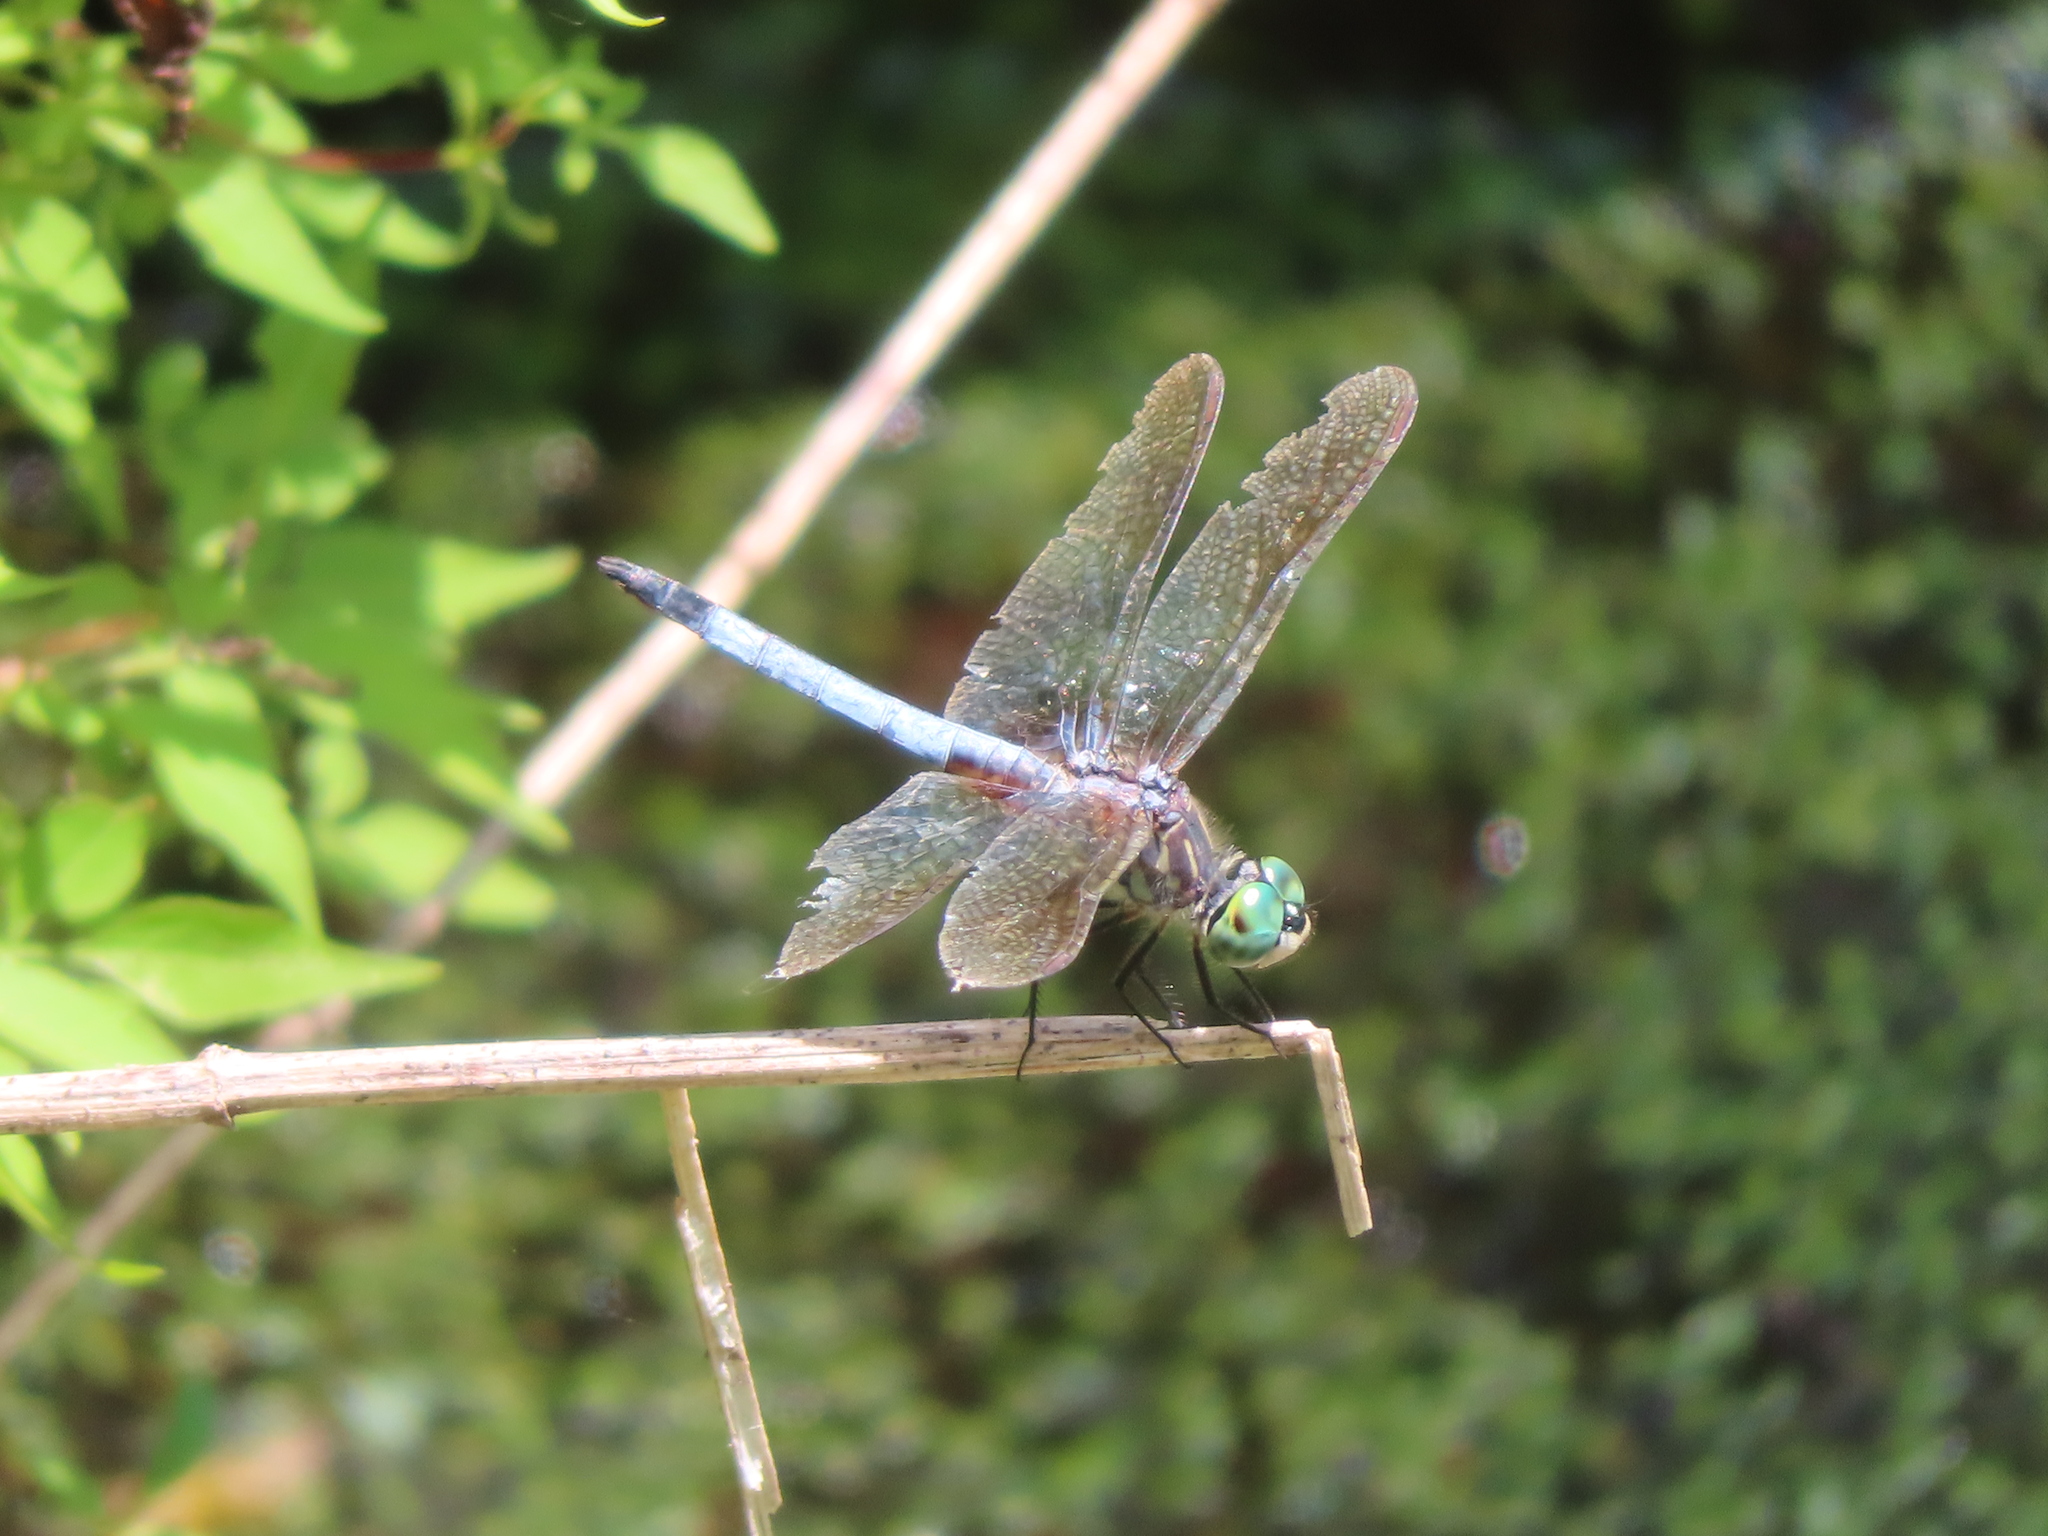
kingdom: Animalia
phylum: Arthropoda
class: Insecta
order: Odonata
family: Libellulidae
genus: Pachydiplax
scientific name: Pachydiplax longipennis
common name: Blue dasher
